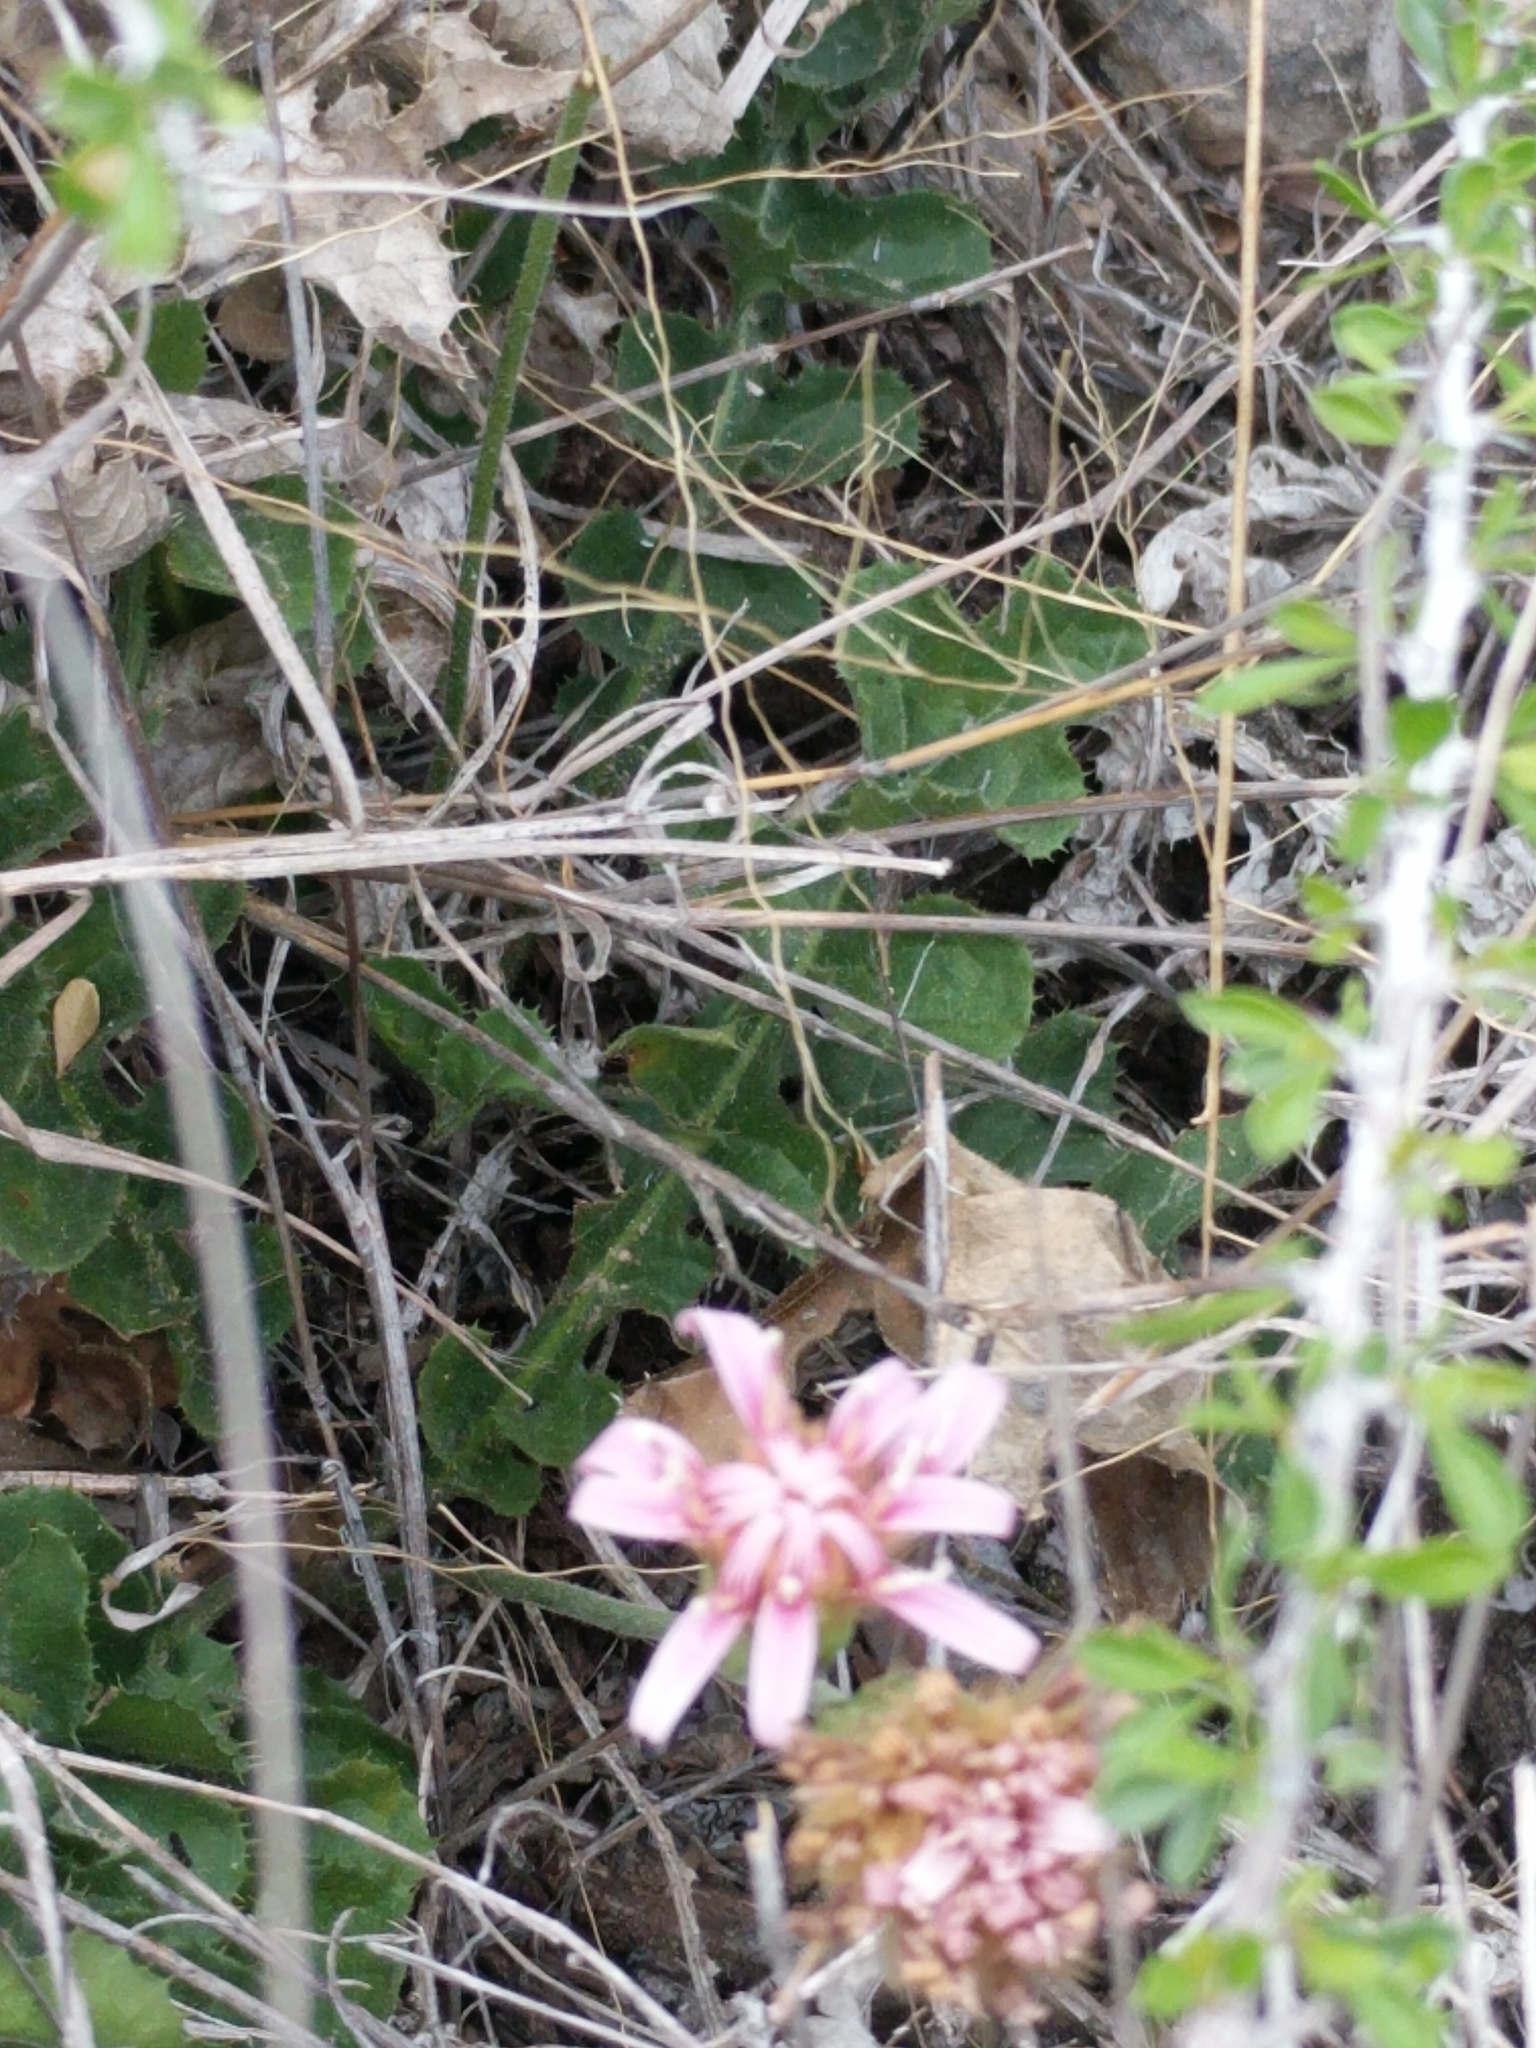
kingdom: Plantae
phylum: Tracheophyta
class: Magnoliopsida
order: Asterales
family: Asteraceae
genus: Acourtia
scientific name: Acourtia runcinata
